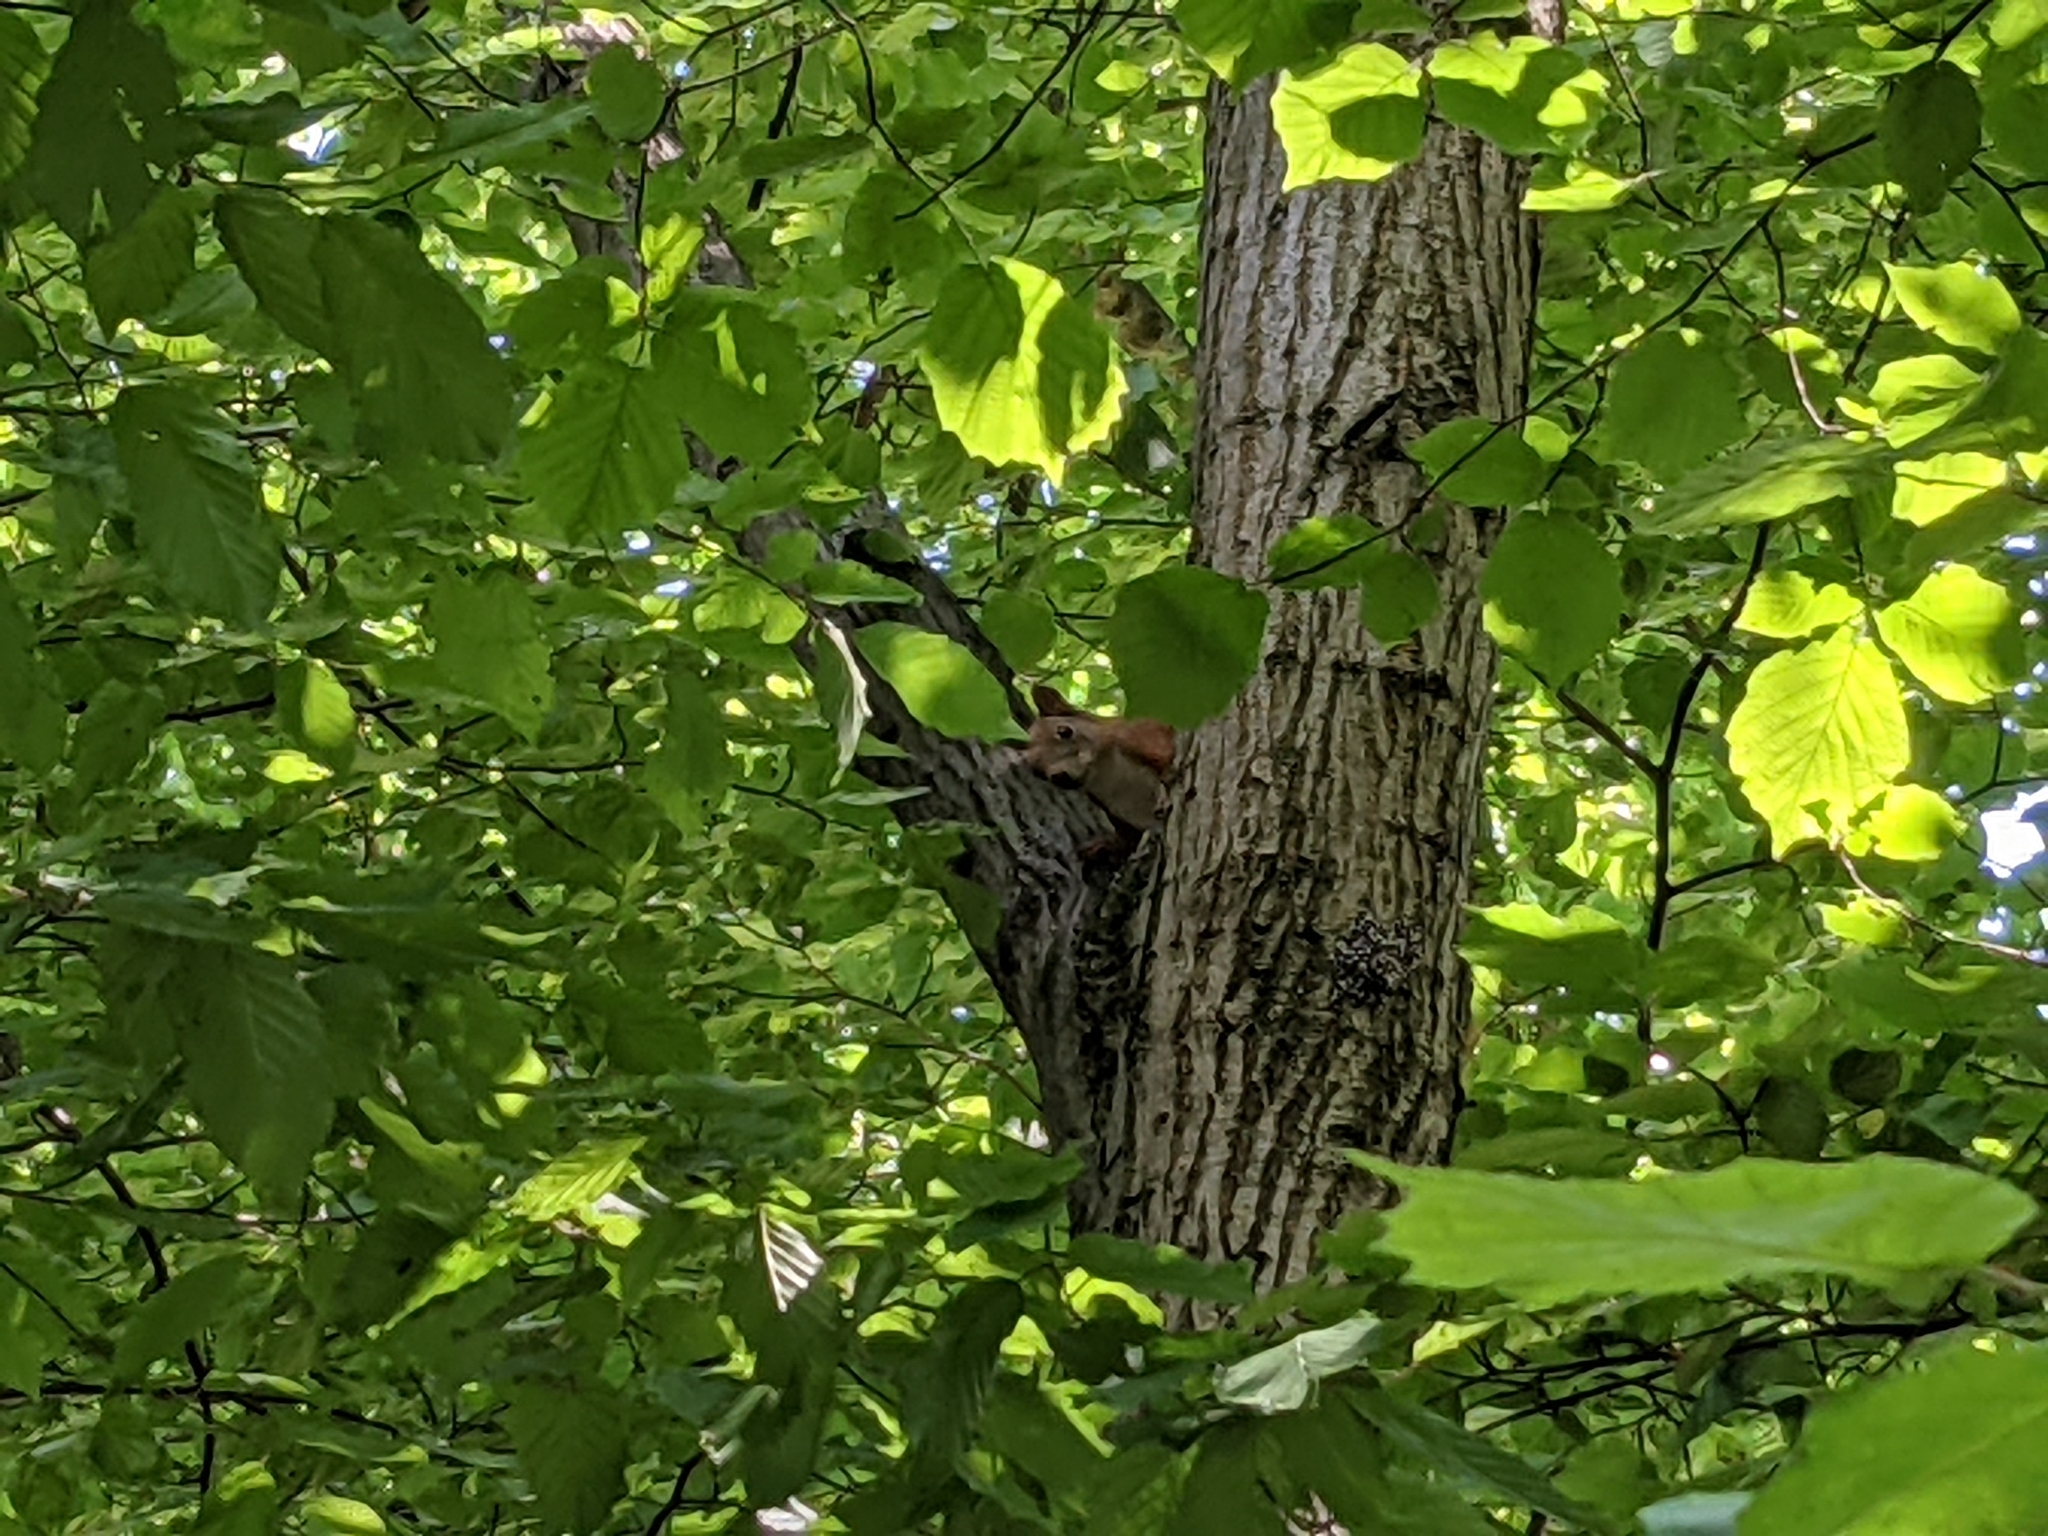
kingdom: Animalia
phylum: Chordata
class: Mammalia
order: Rodentia
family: Sciuridae
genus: Sciurus
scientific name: Sciurus vulgaris
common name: Eurasian red squirrel
